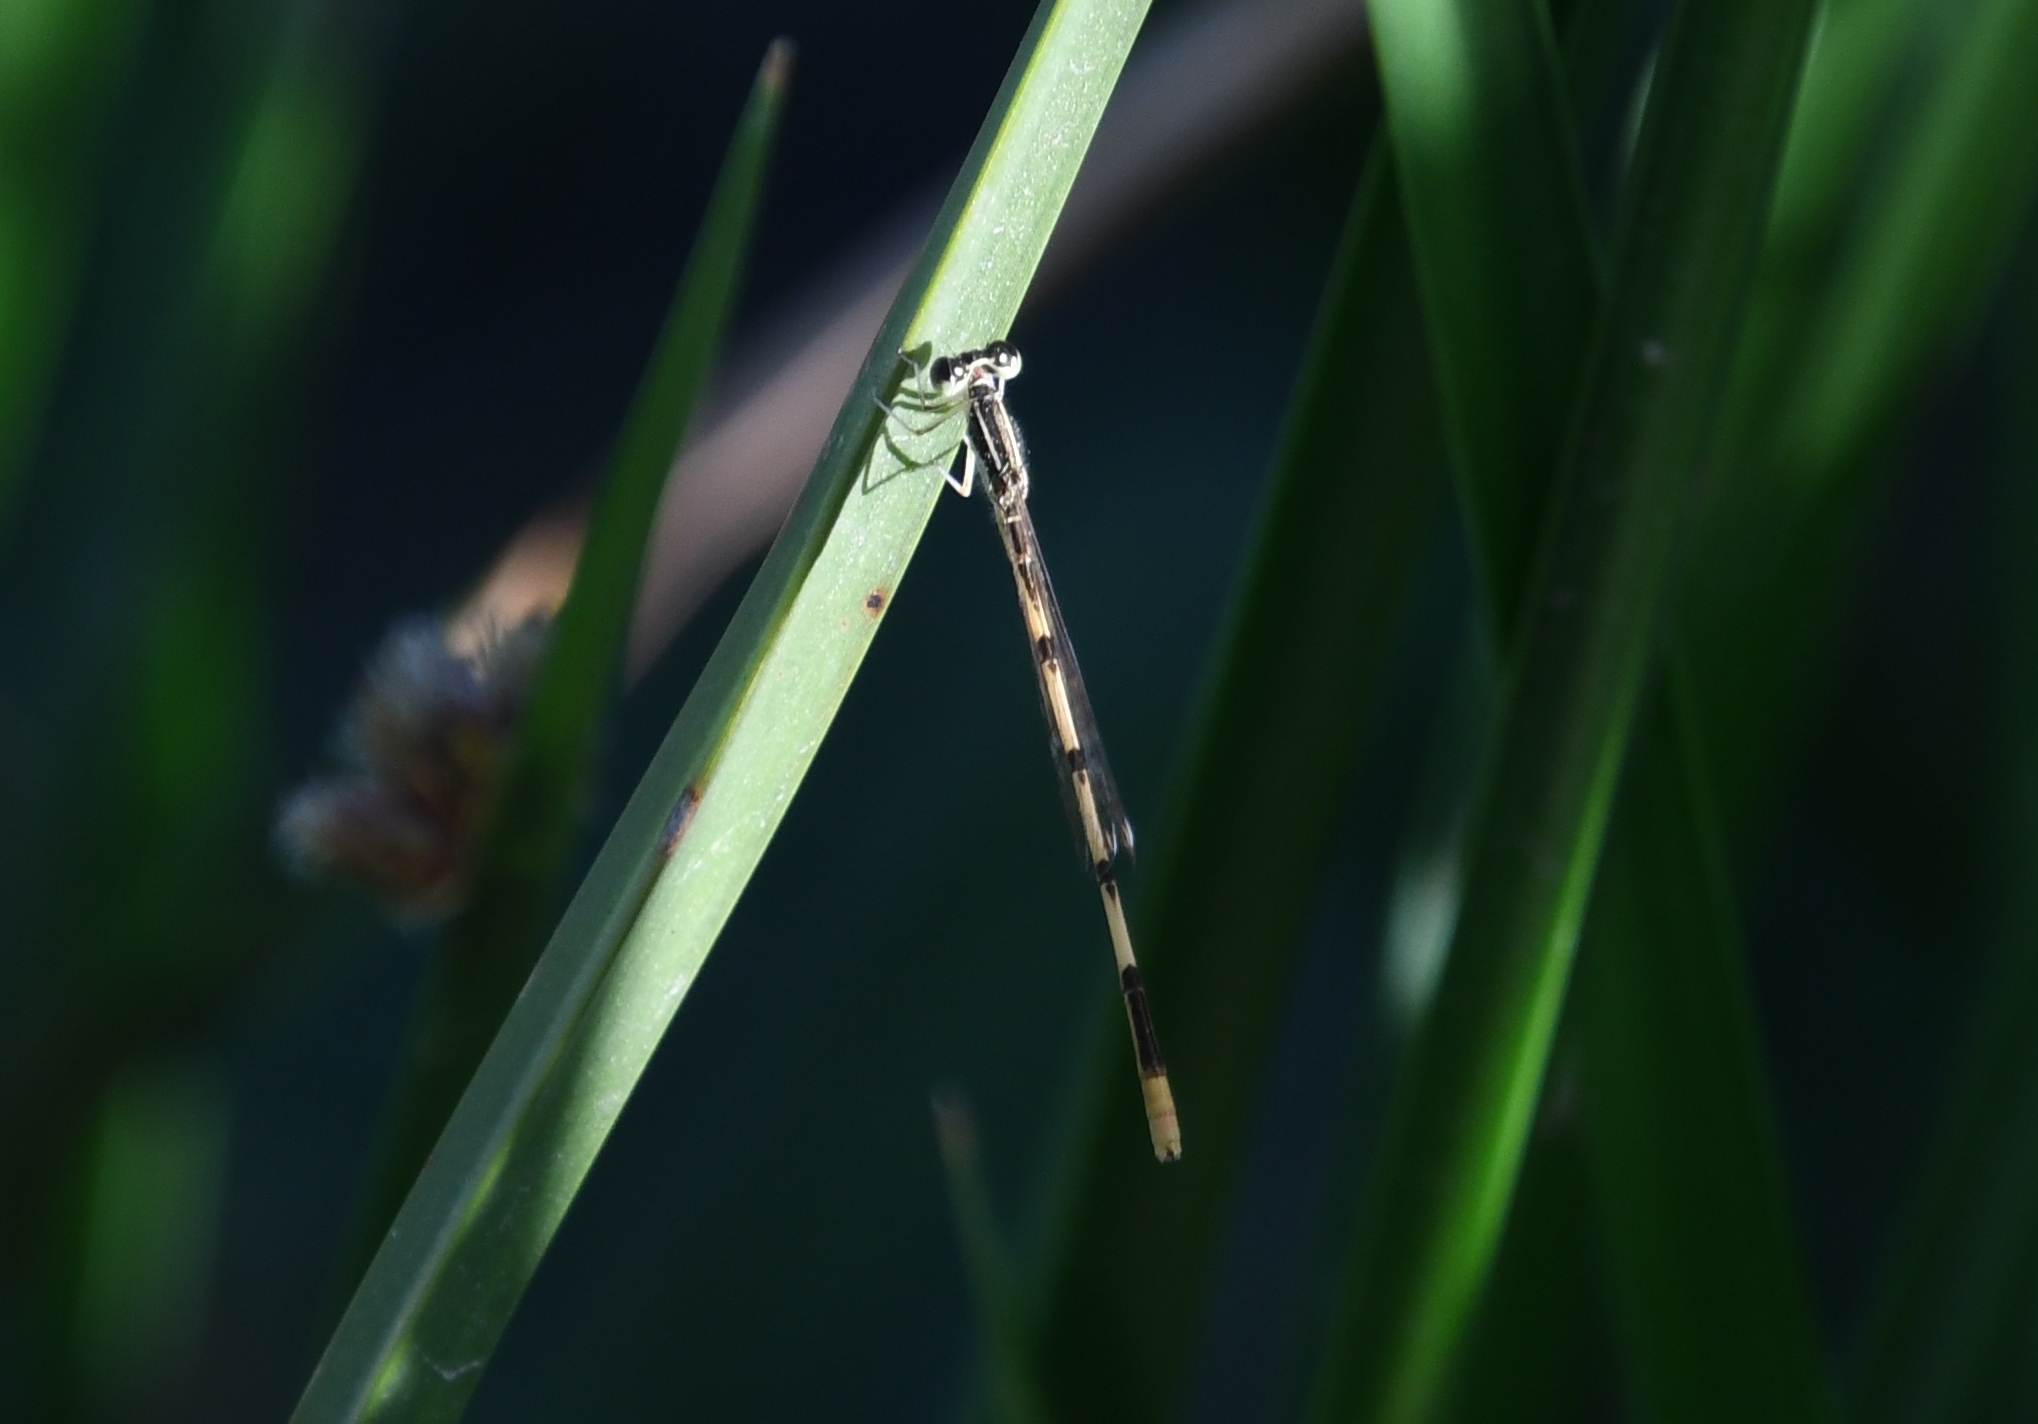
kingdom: Animalia
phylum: Arthropoda
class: Insecta
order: Odonata
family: Coenagrionidae
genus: Ischnura
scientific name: Ischnura hastata
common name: Citrine forktail
